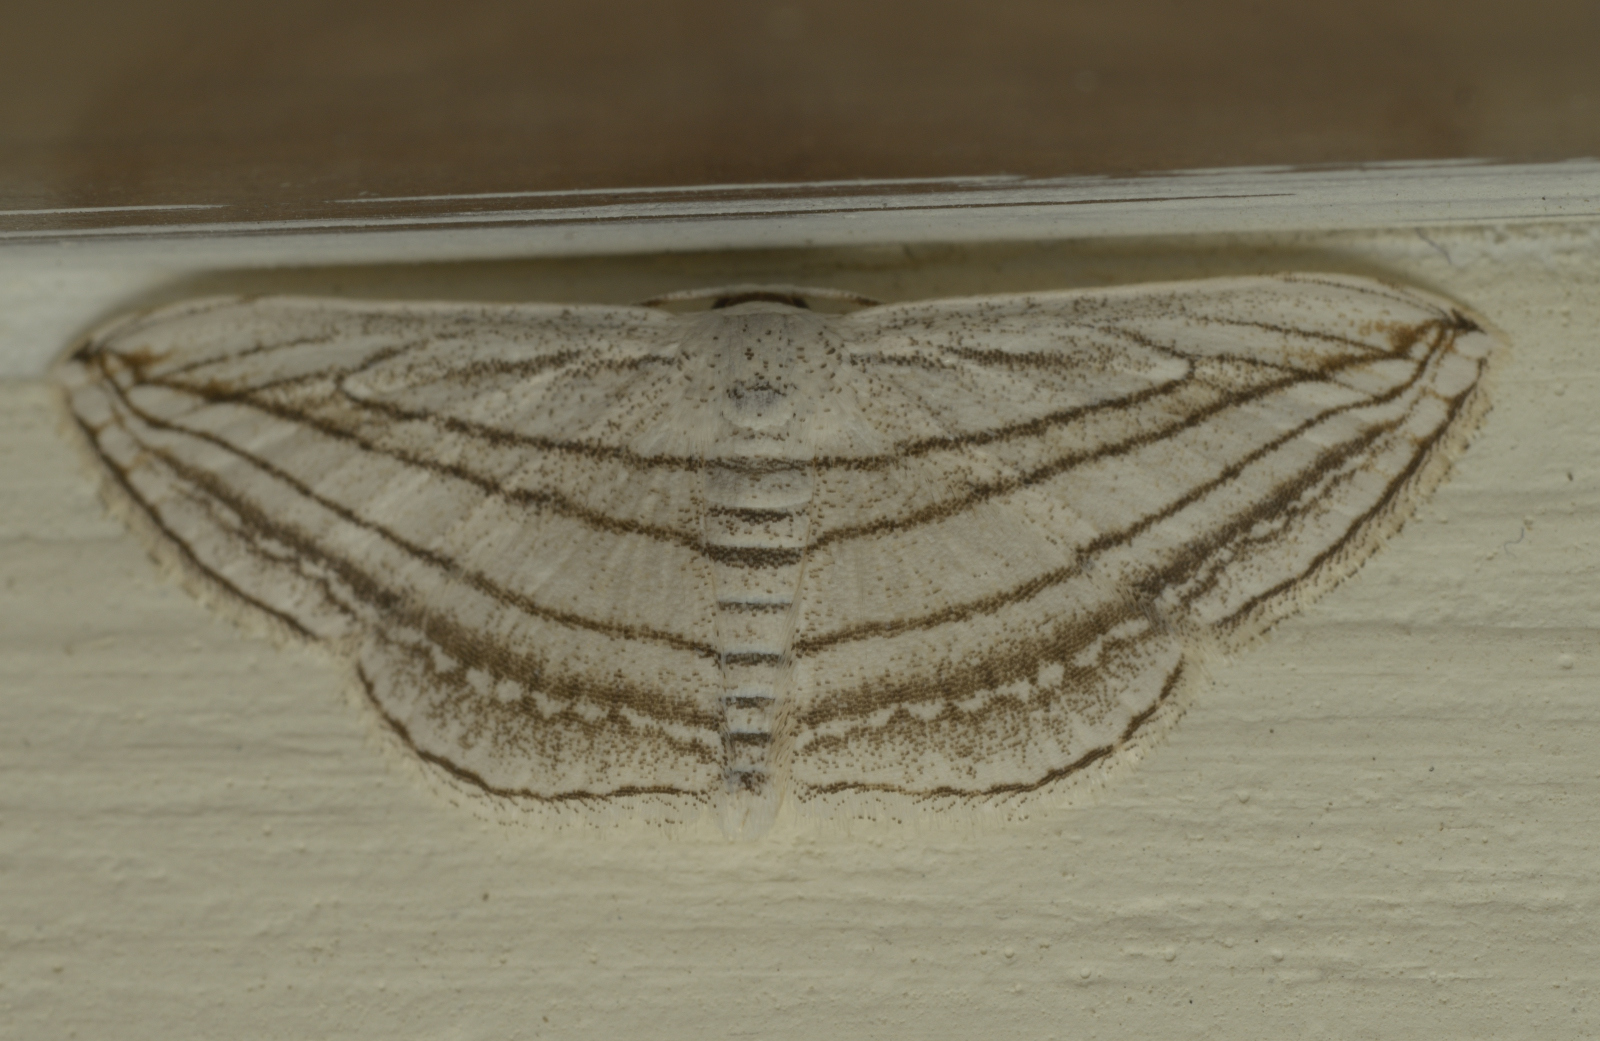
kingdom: Animalia
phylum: Arthropoda
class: Insecta
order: Lepidoptera
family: Geometridae
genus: Scopula
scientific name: Scopula opicata
